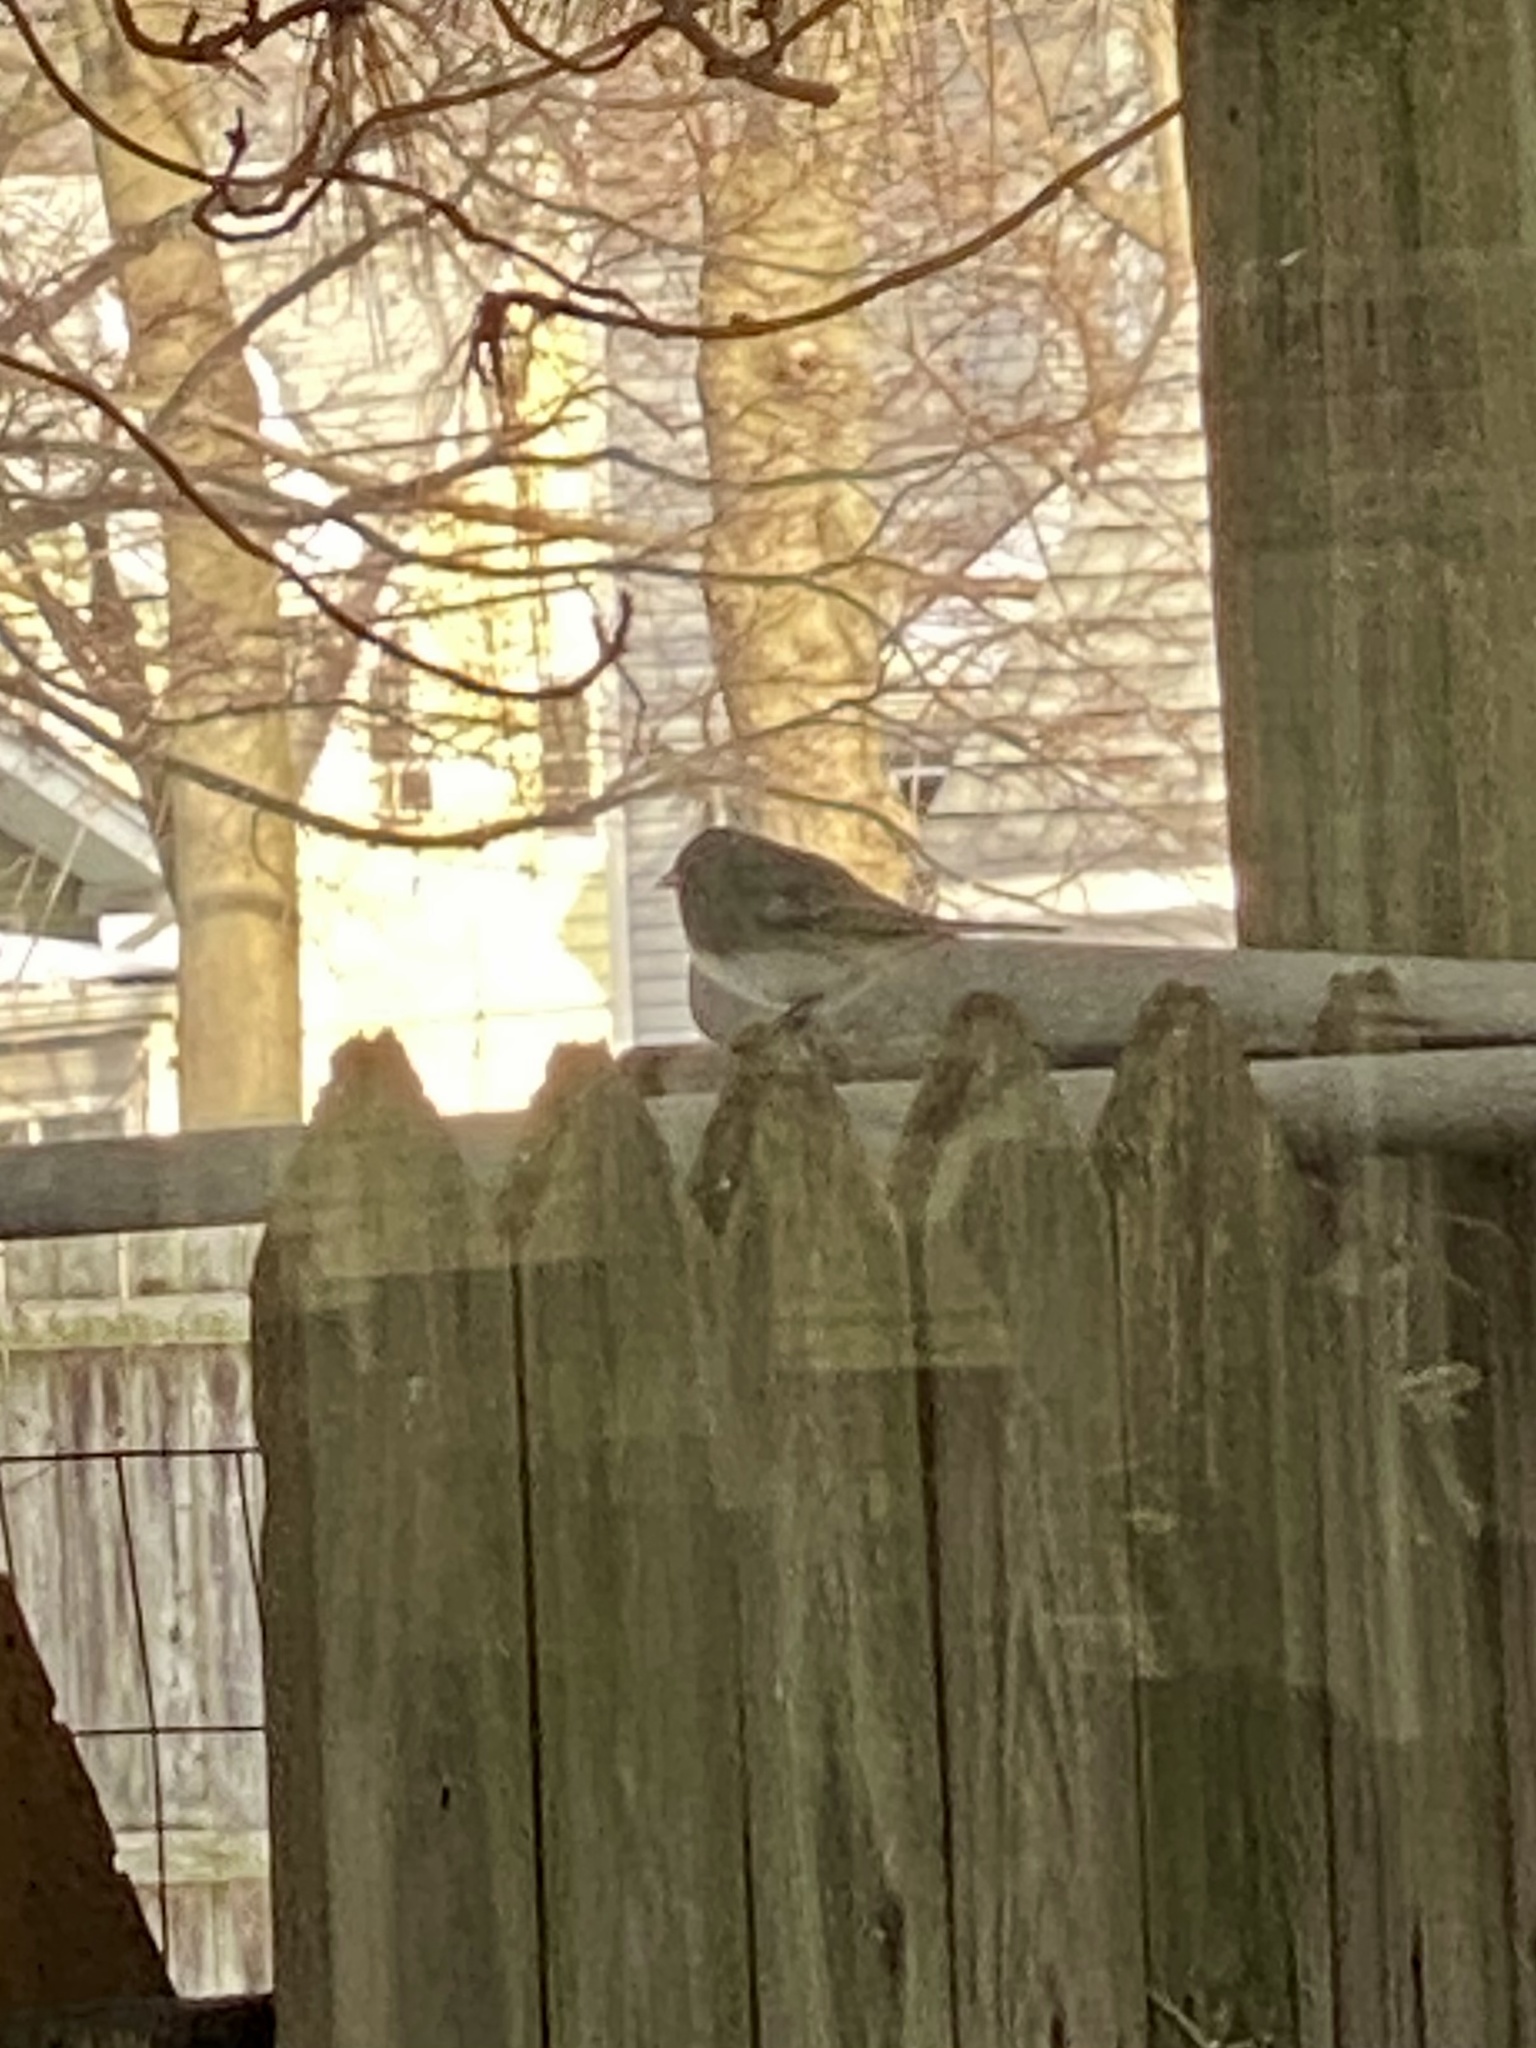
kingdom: Animalia
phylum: Chordata
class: Aves
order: Passeriformes
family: Passerellidae
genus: Junco
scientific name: Junco hyemalis
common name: Dark-eyed junco
